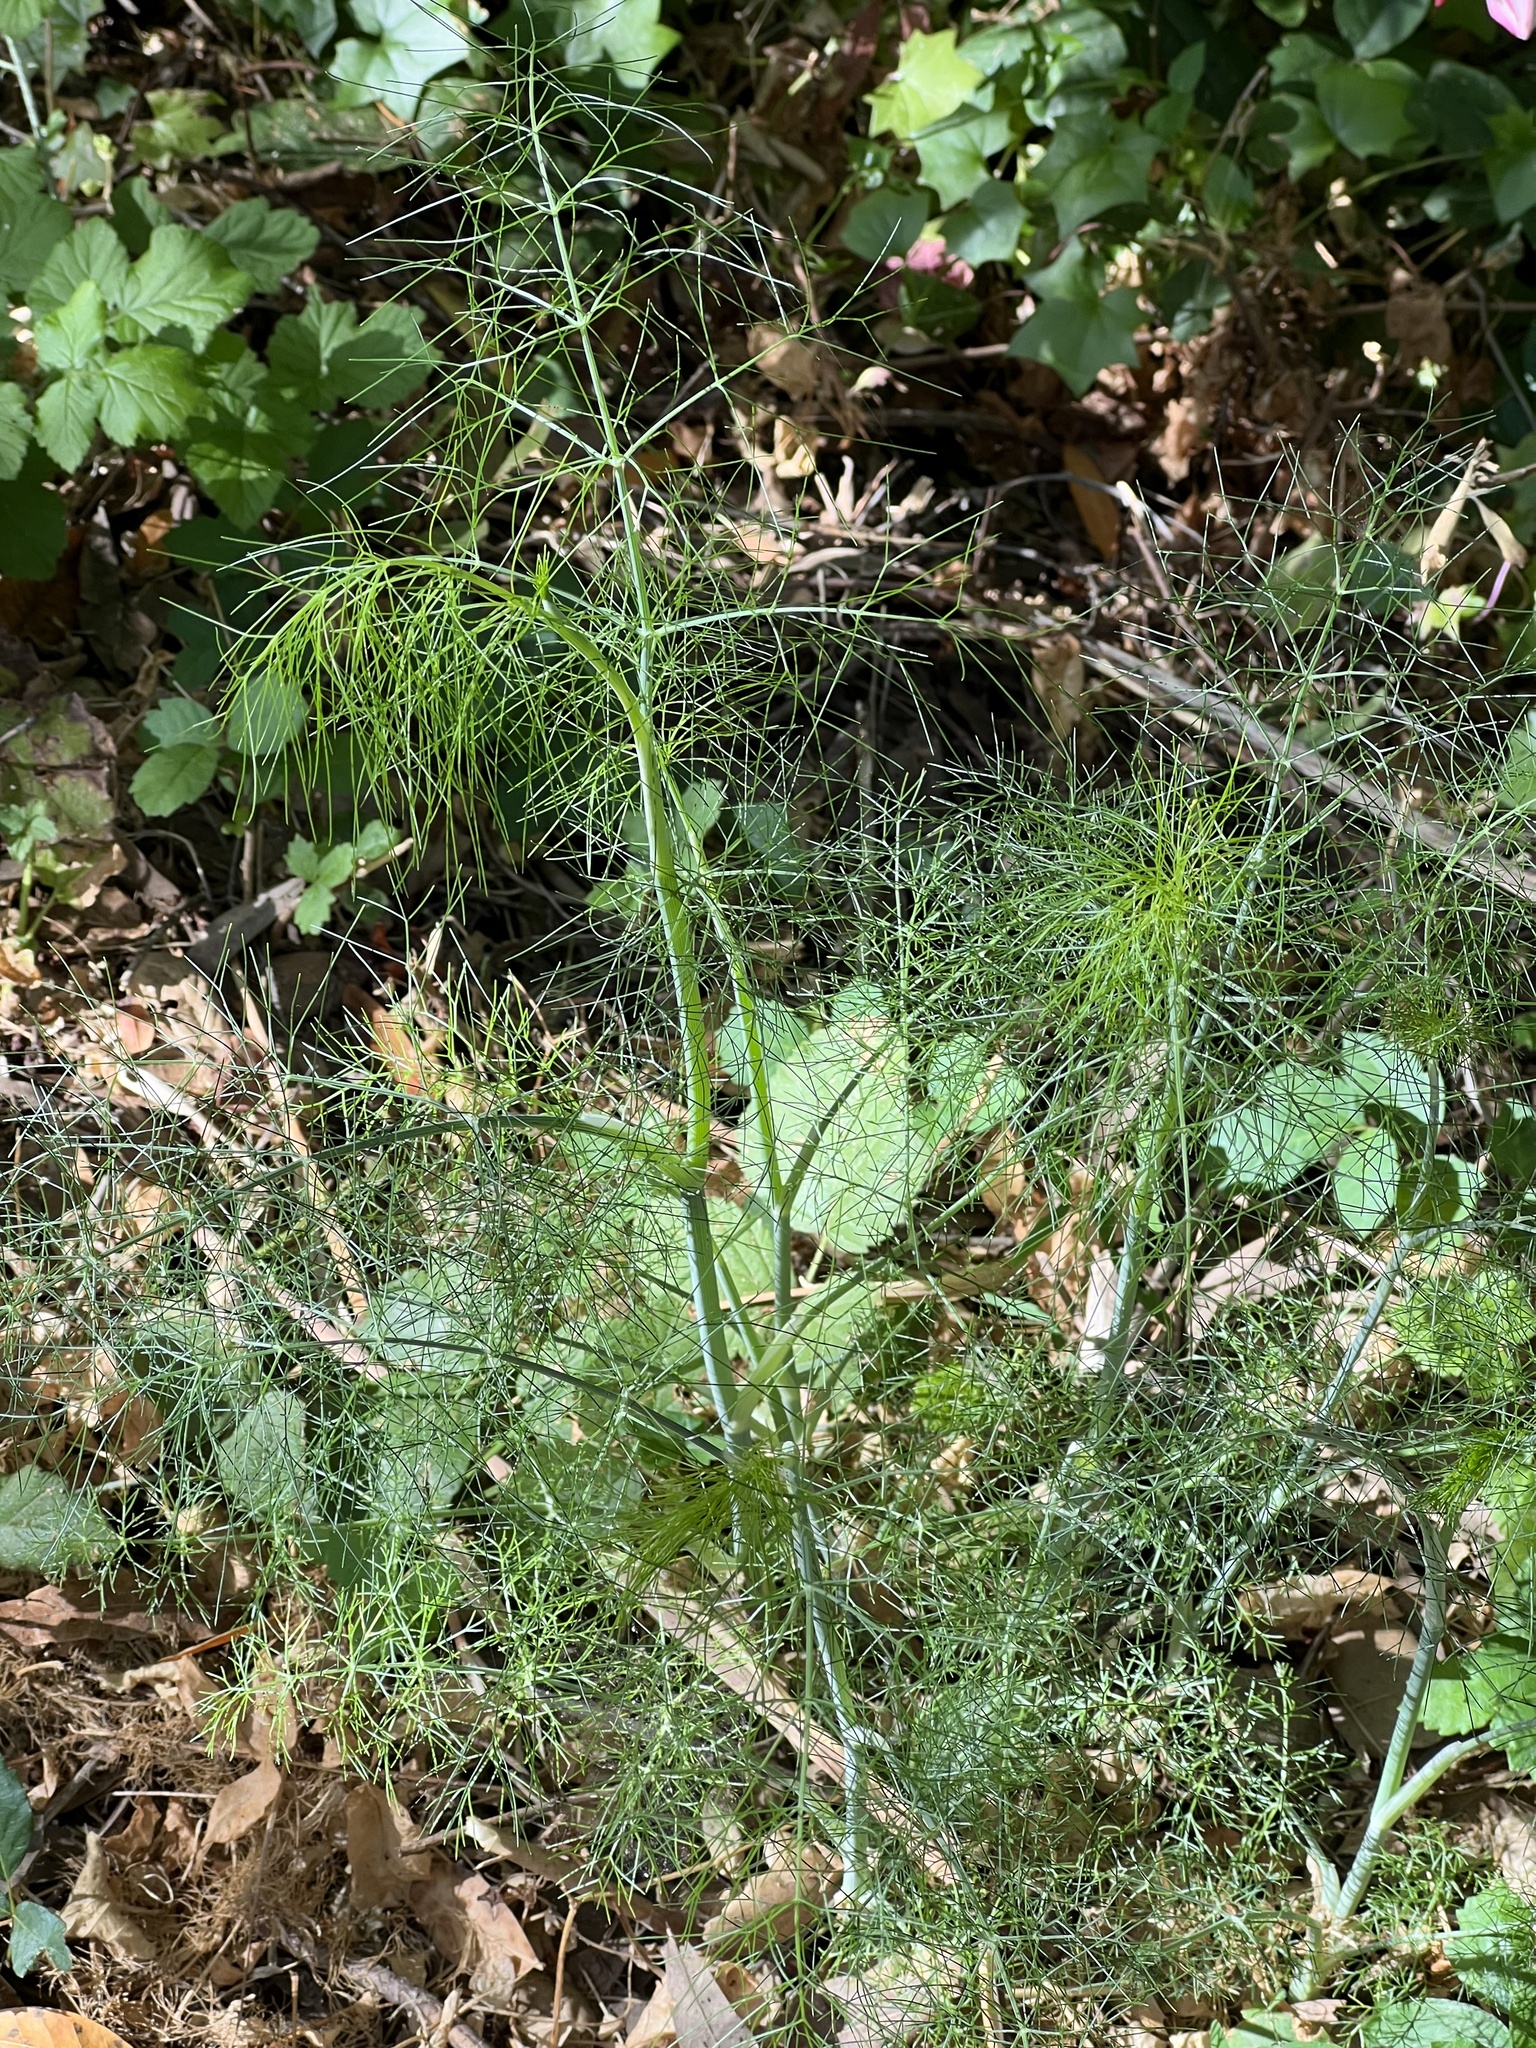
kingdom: Plantae
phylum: Tracheophyta
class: Magnoliopsida
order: Apiales
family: Apiaceae
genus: Foeniculum
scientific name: Foeniculum vulgare
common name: Fennel
